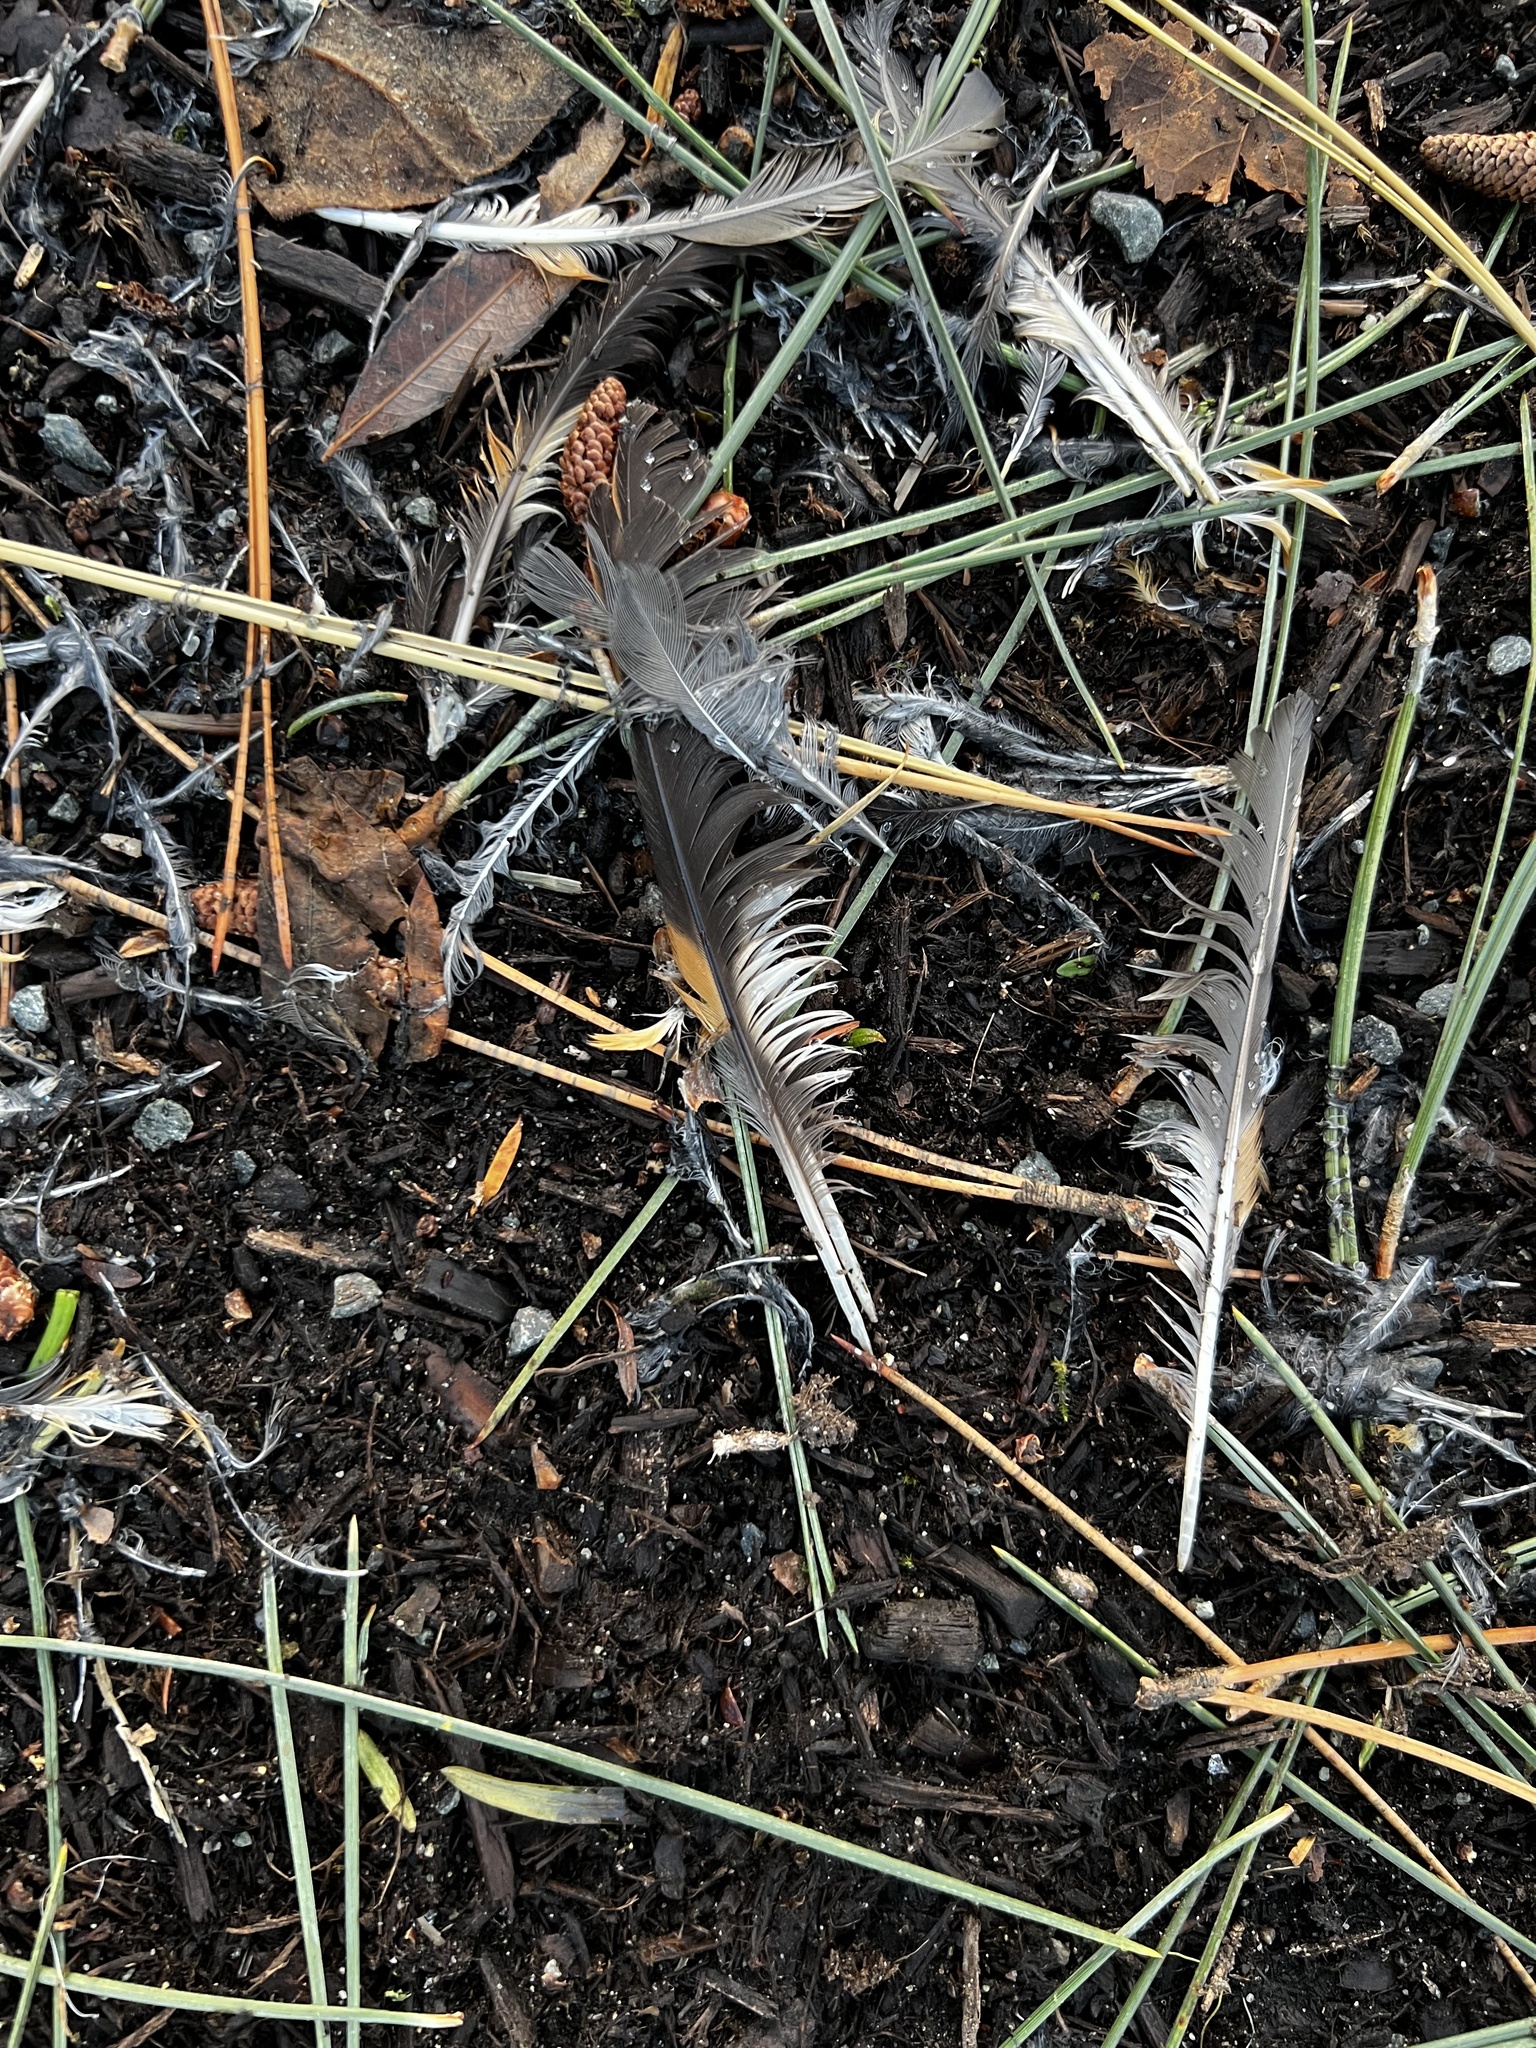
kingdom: Animalia
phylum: Chordata
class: Aves
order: Passeriformes
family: Turdidae
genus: Ixoreus
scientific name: Ixoreus naevius
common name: Varied thrush
